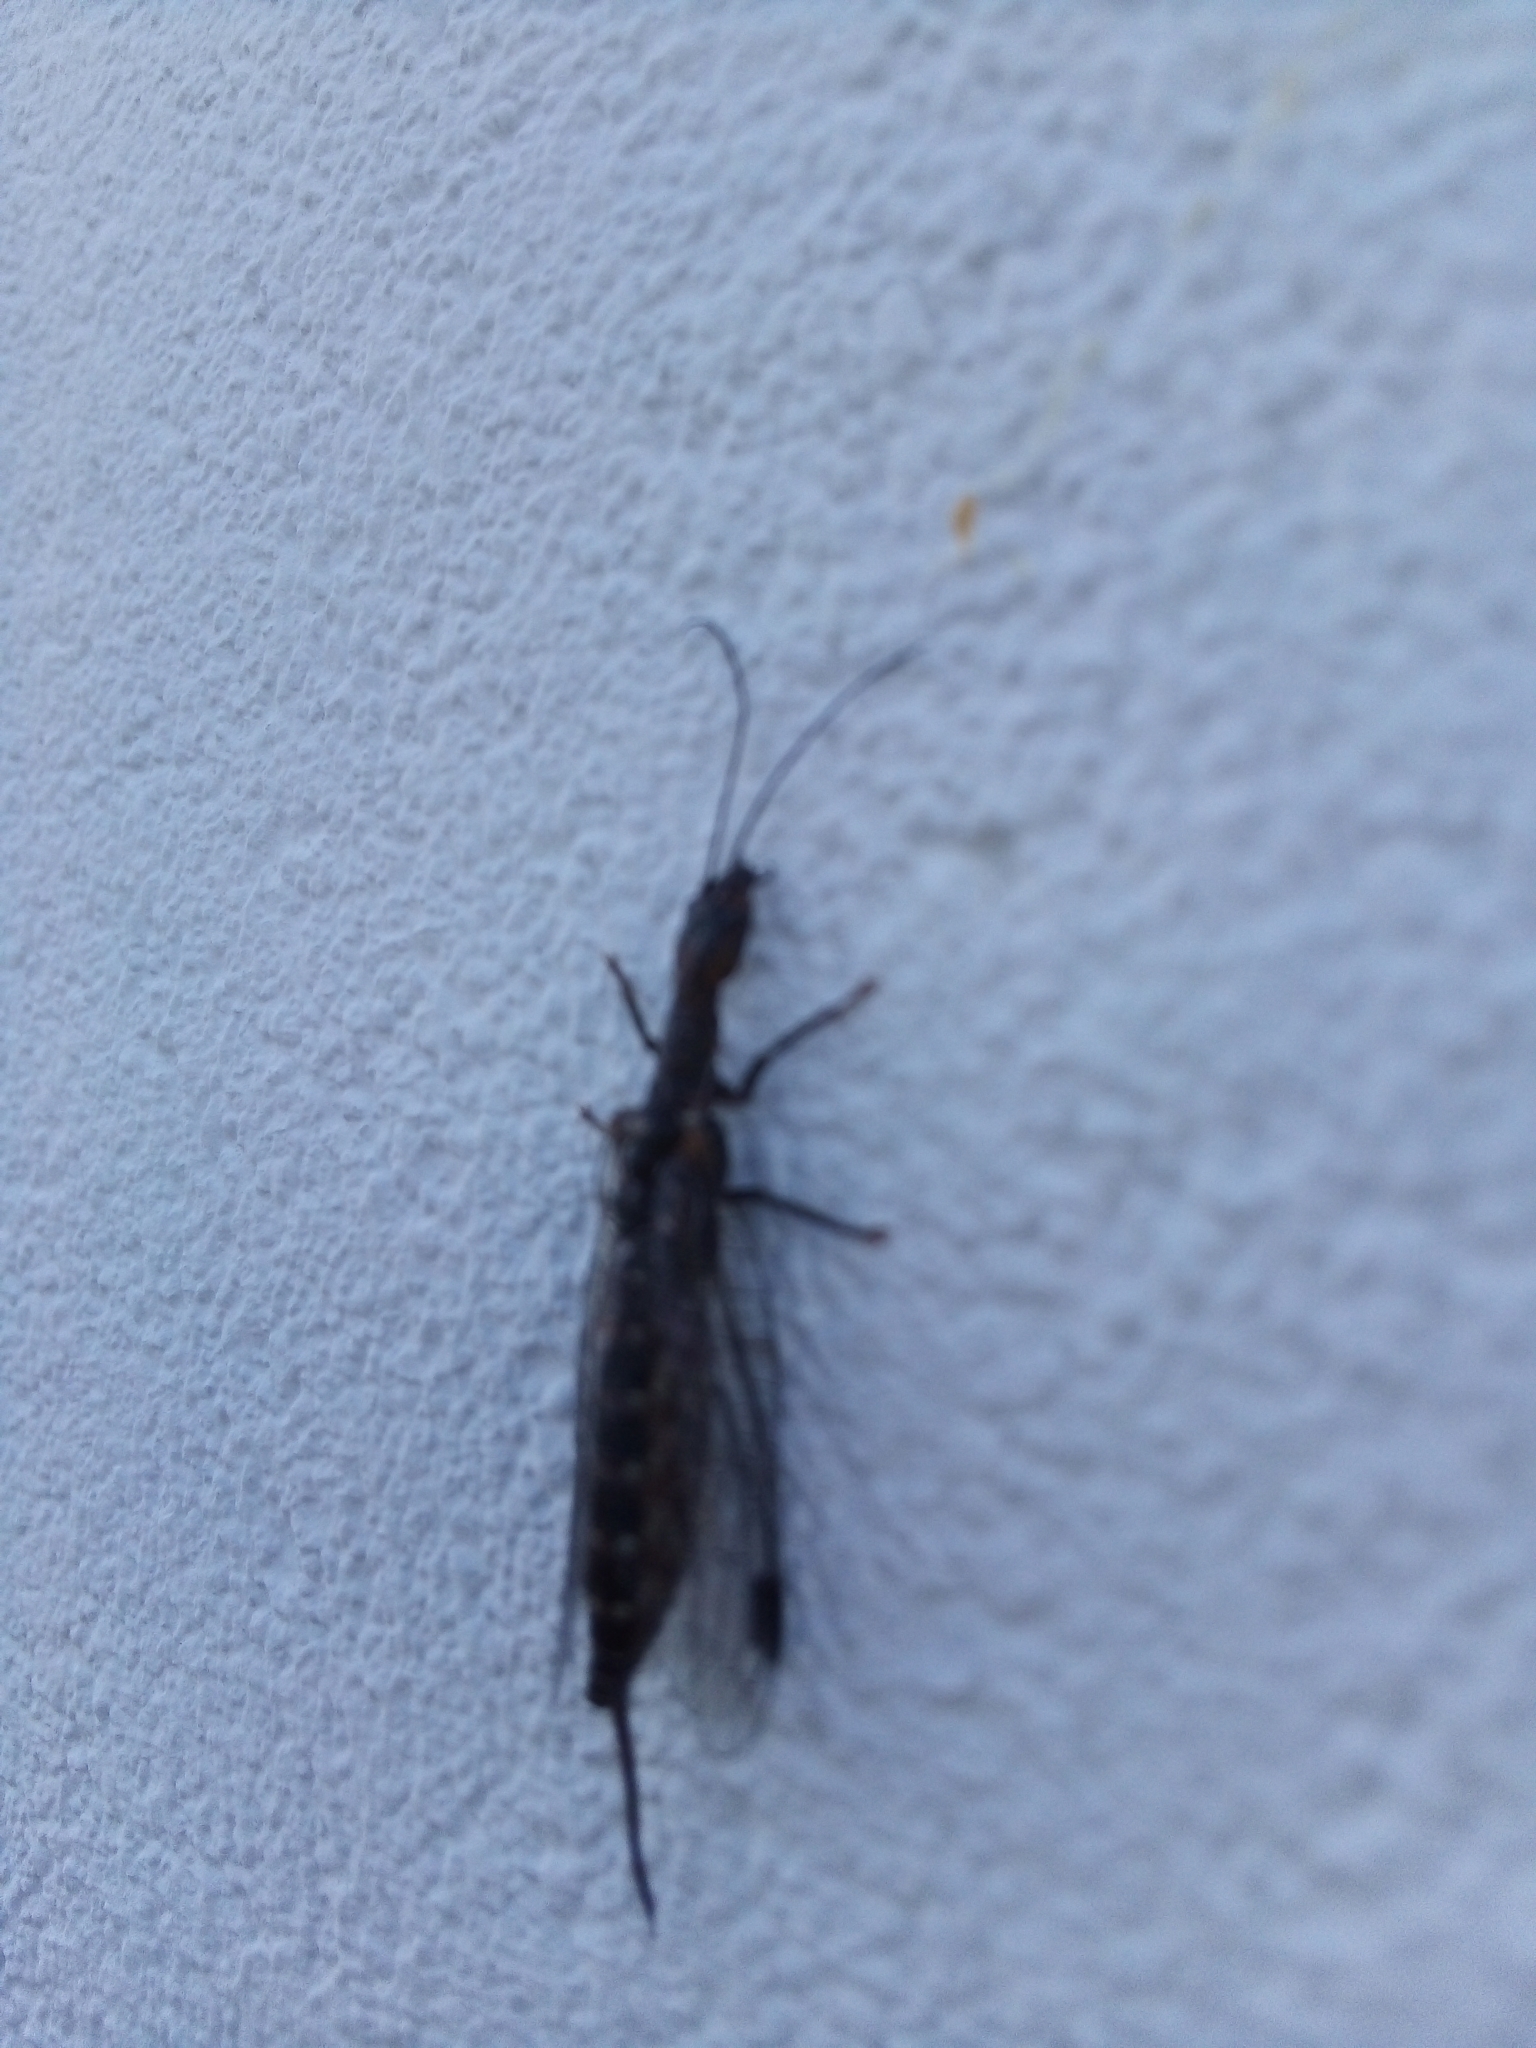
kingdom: Animalia
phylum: Arthropoda
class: Insecta
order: Raphidioptera
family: Inocelliidae
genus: Fibla
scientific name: Fibla hesperica
